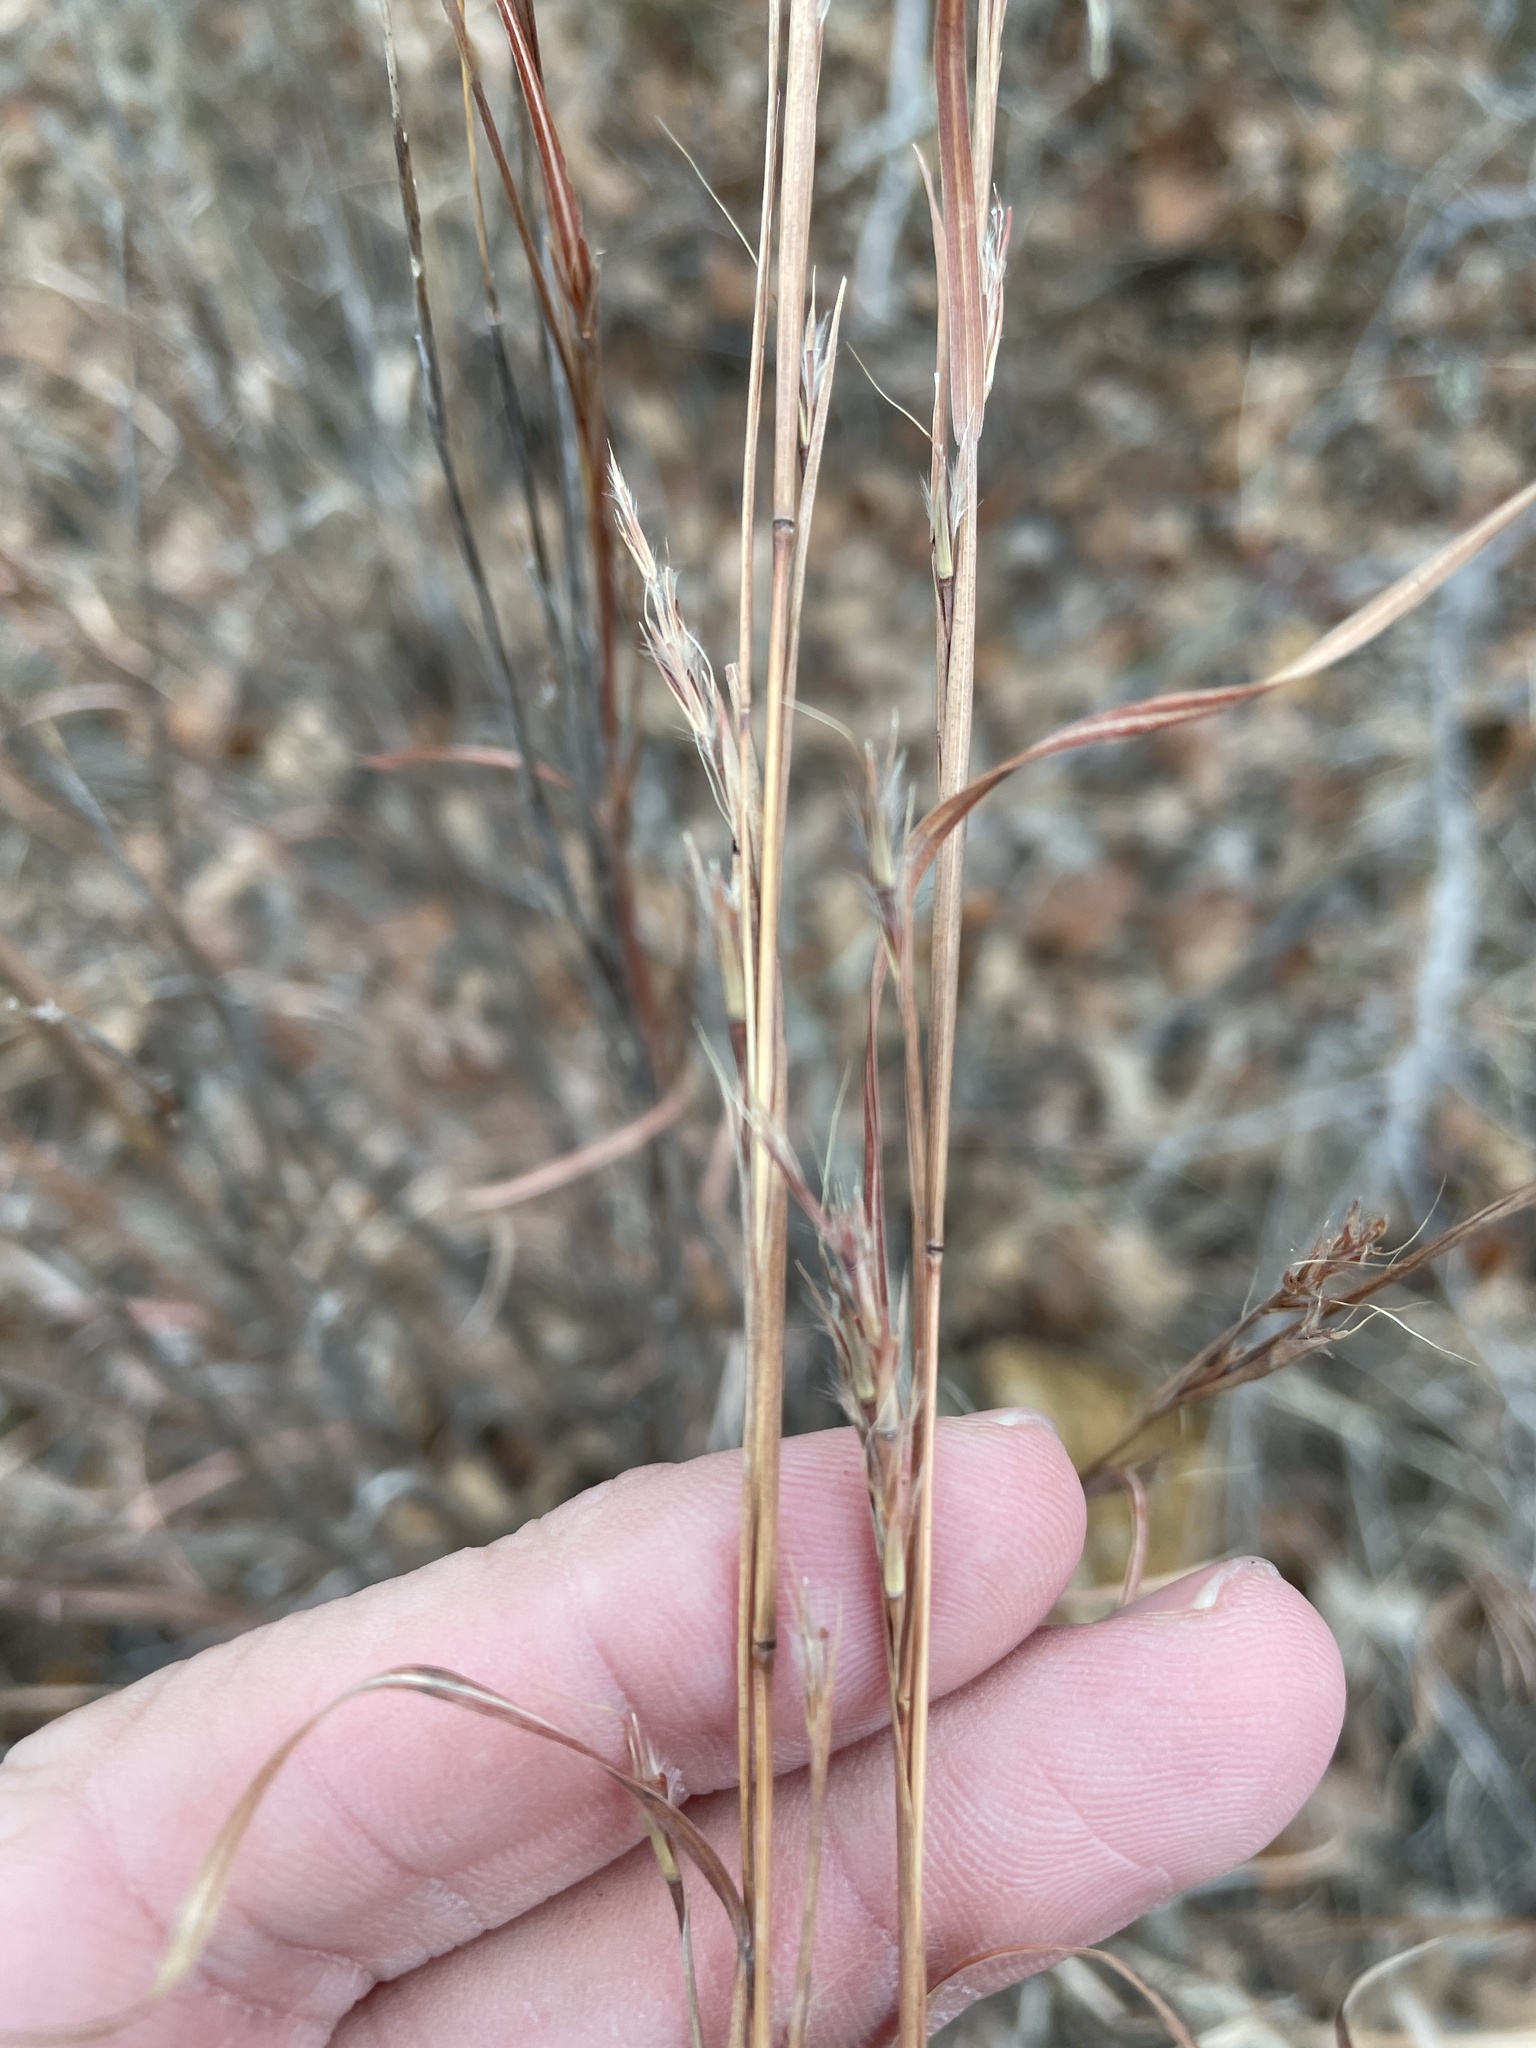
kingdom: Plantae
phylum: Tracheophyta
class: Liliopsida
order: Poales
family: Poaceae
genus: Schizachyrium
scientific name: Schizachyrium scoparium
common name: Little bluestem
